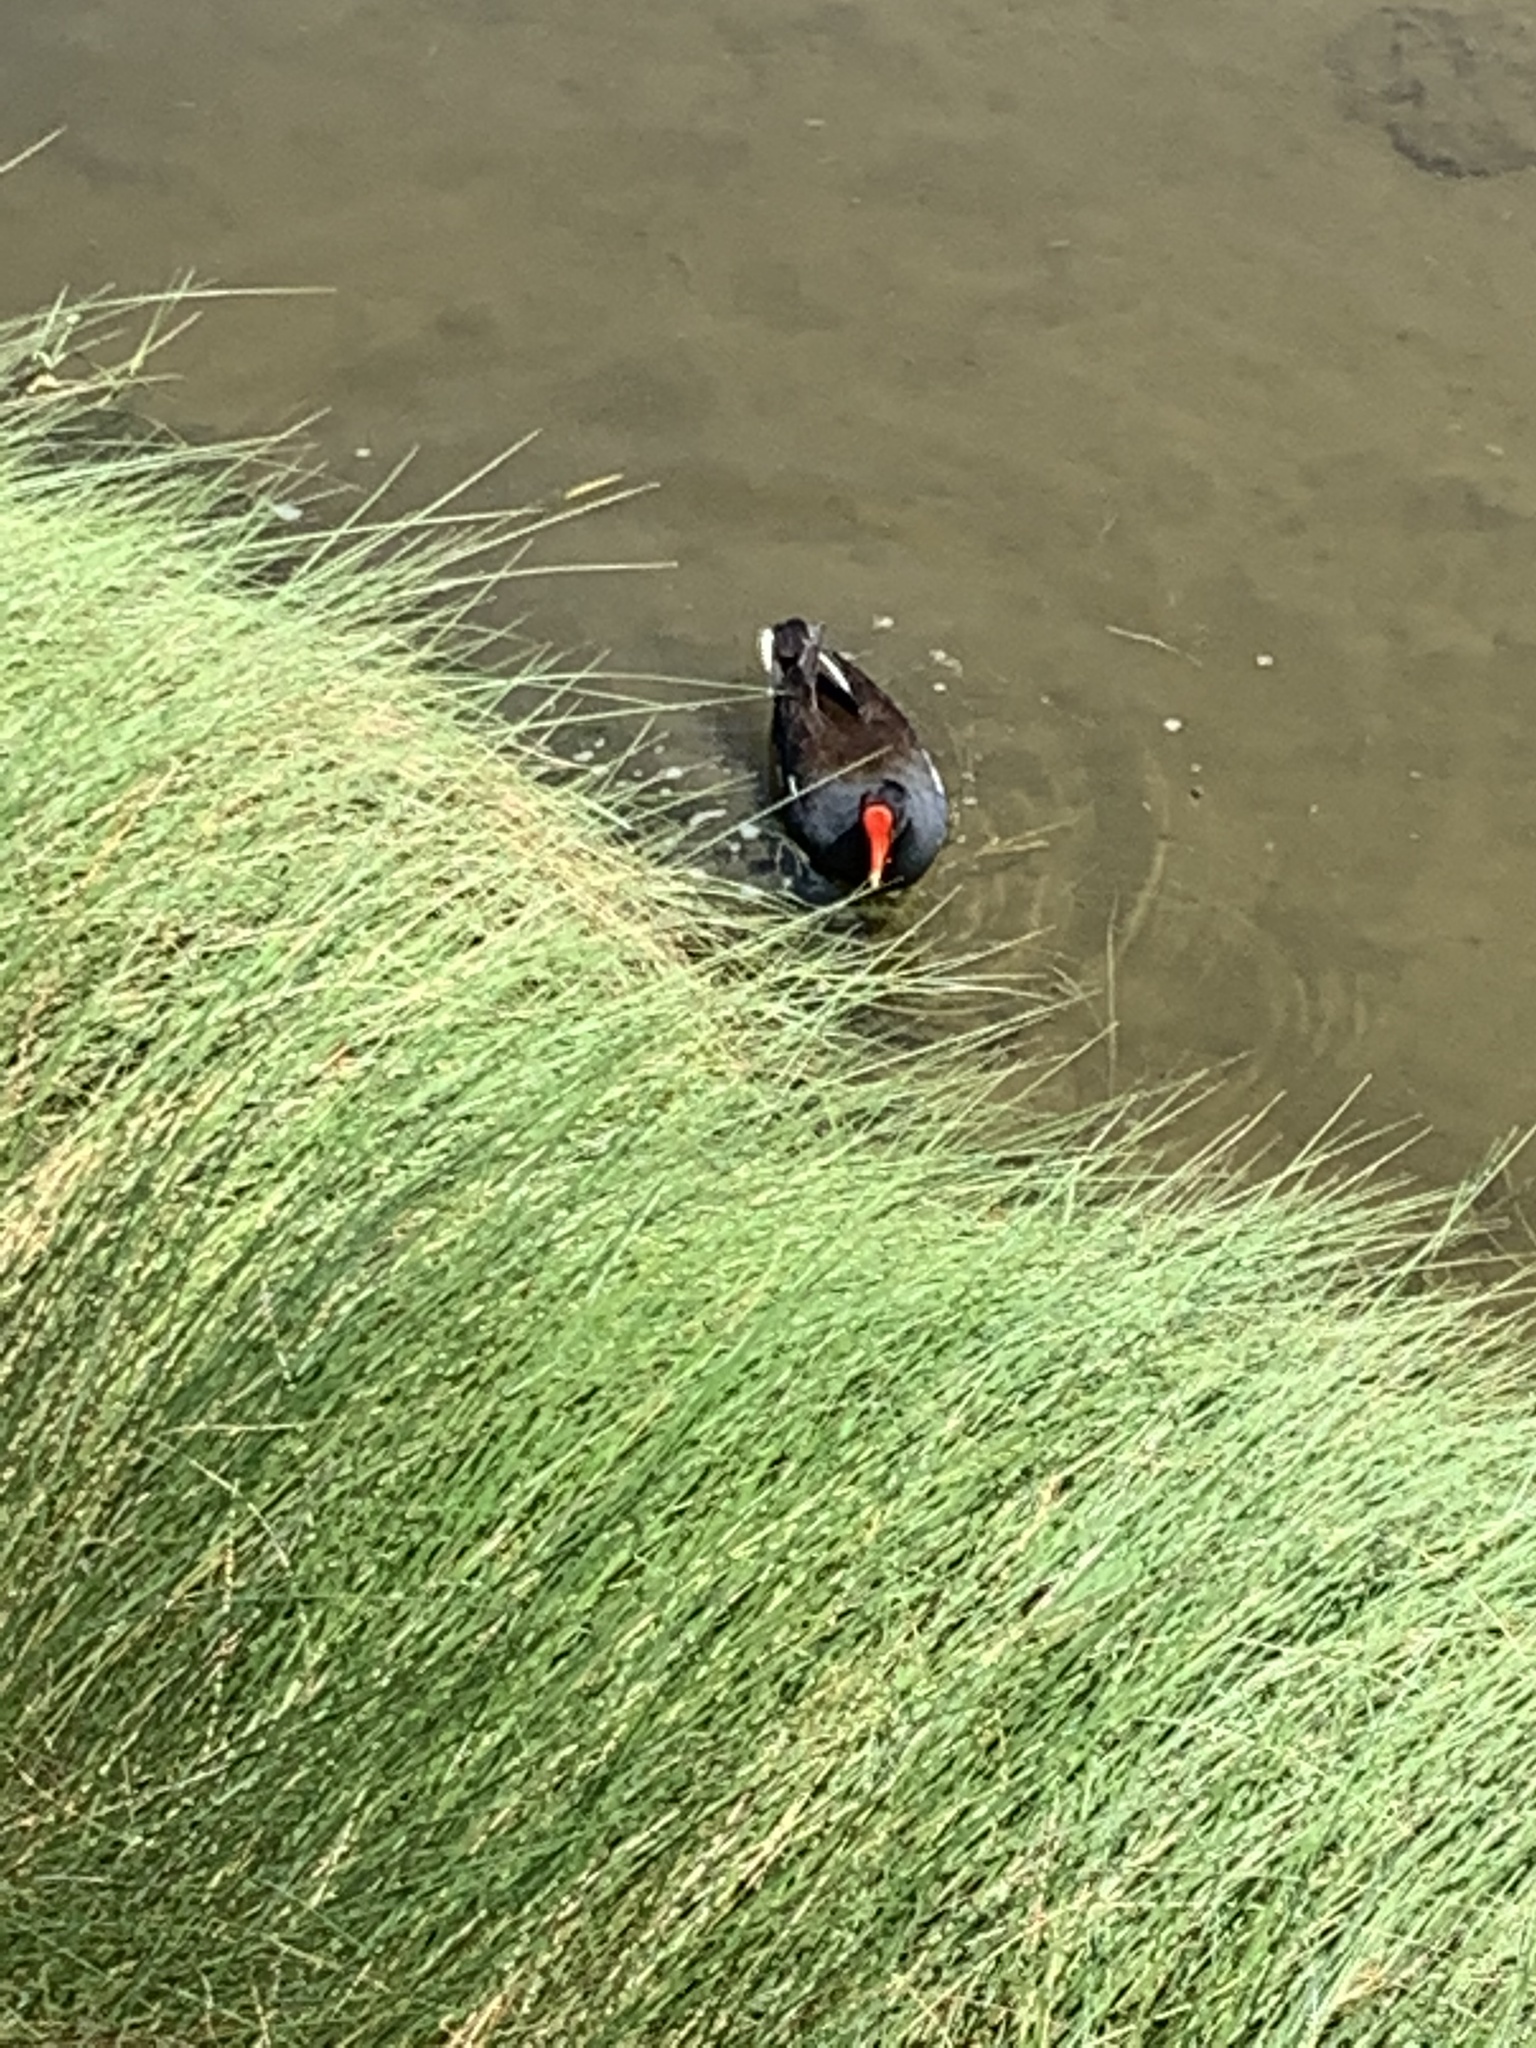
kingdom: Animalia
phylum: Chordata
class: Aves
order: Gruiformes
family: Rallidae
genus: Gallinula
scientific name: Gallinula chloropus
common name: Common moorhen
